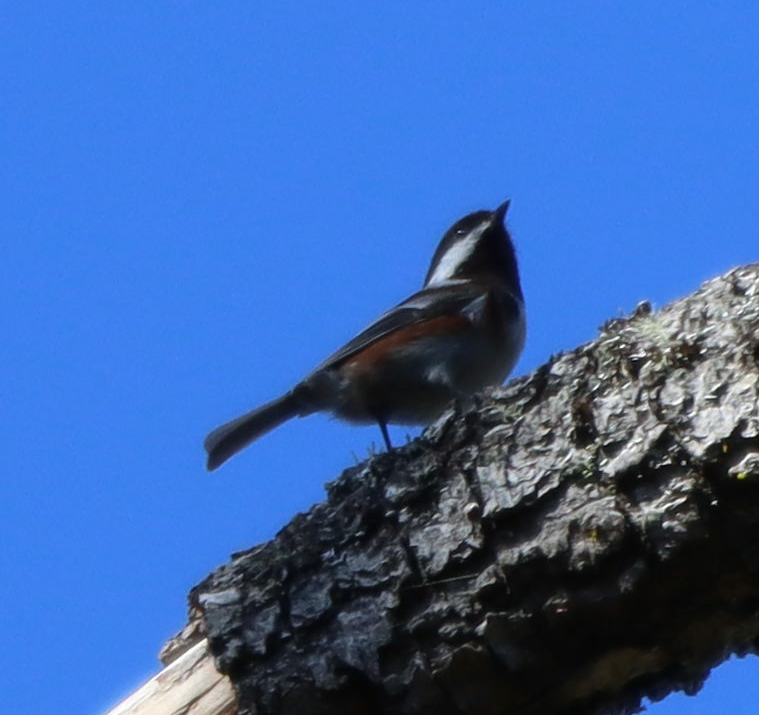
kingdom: Animalia
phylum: Chordata
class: Aves
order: Passeriformes
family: Paridae
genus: Poecile
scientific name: Poecile rufescens
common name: Chestnut-backed chickadee
